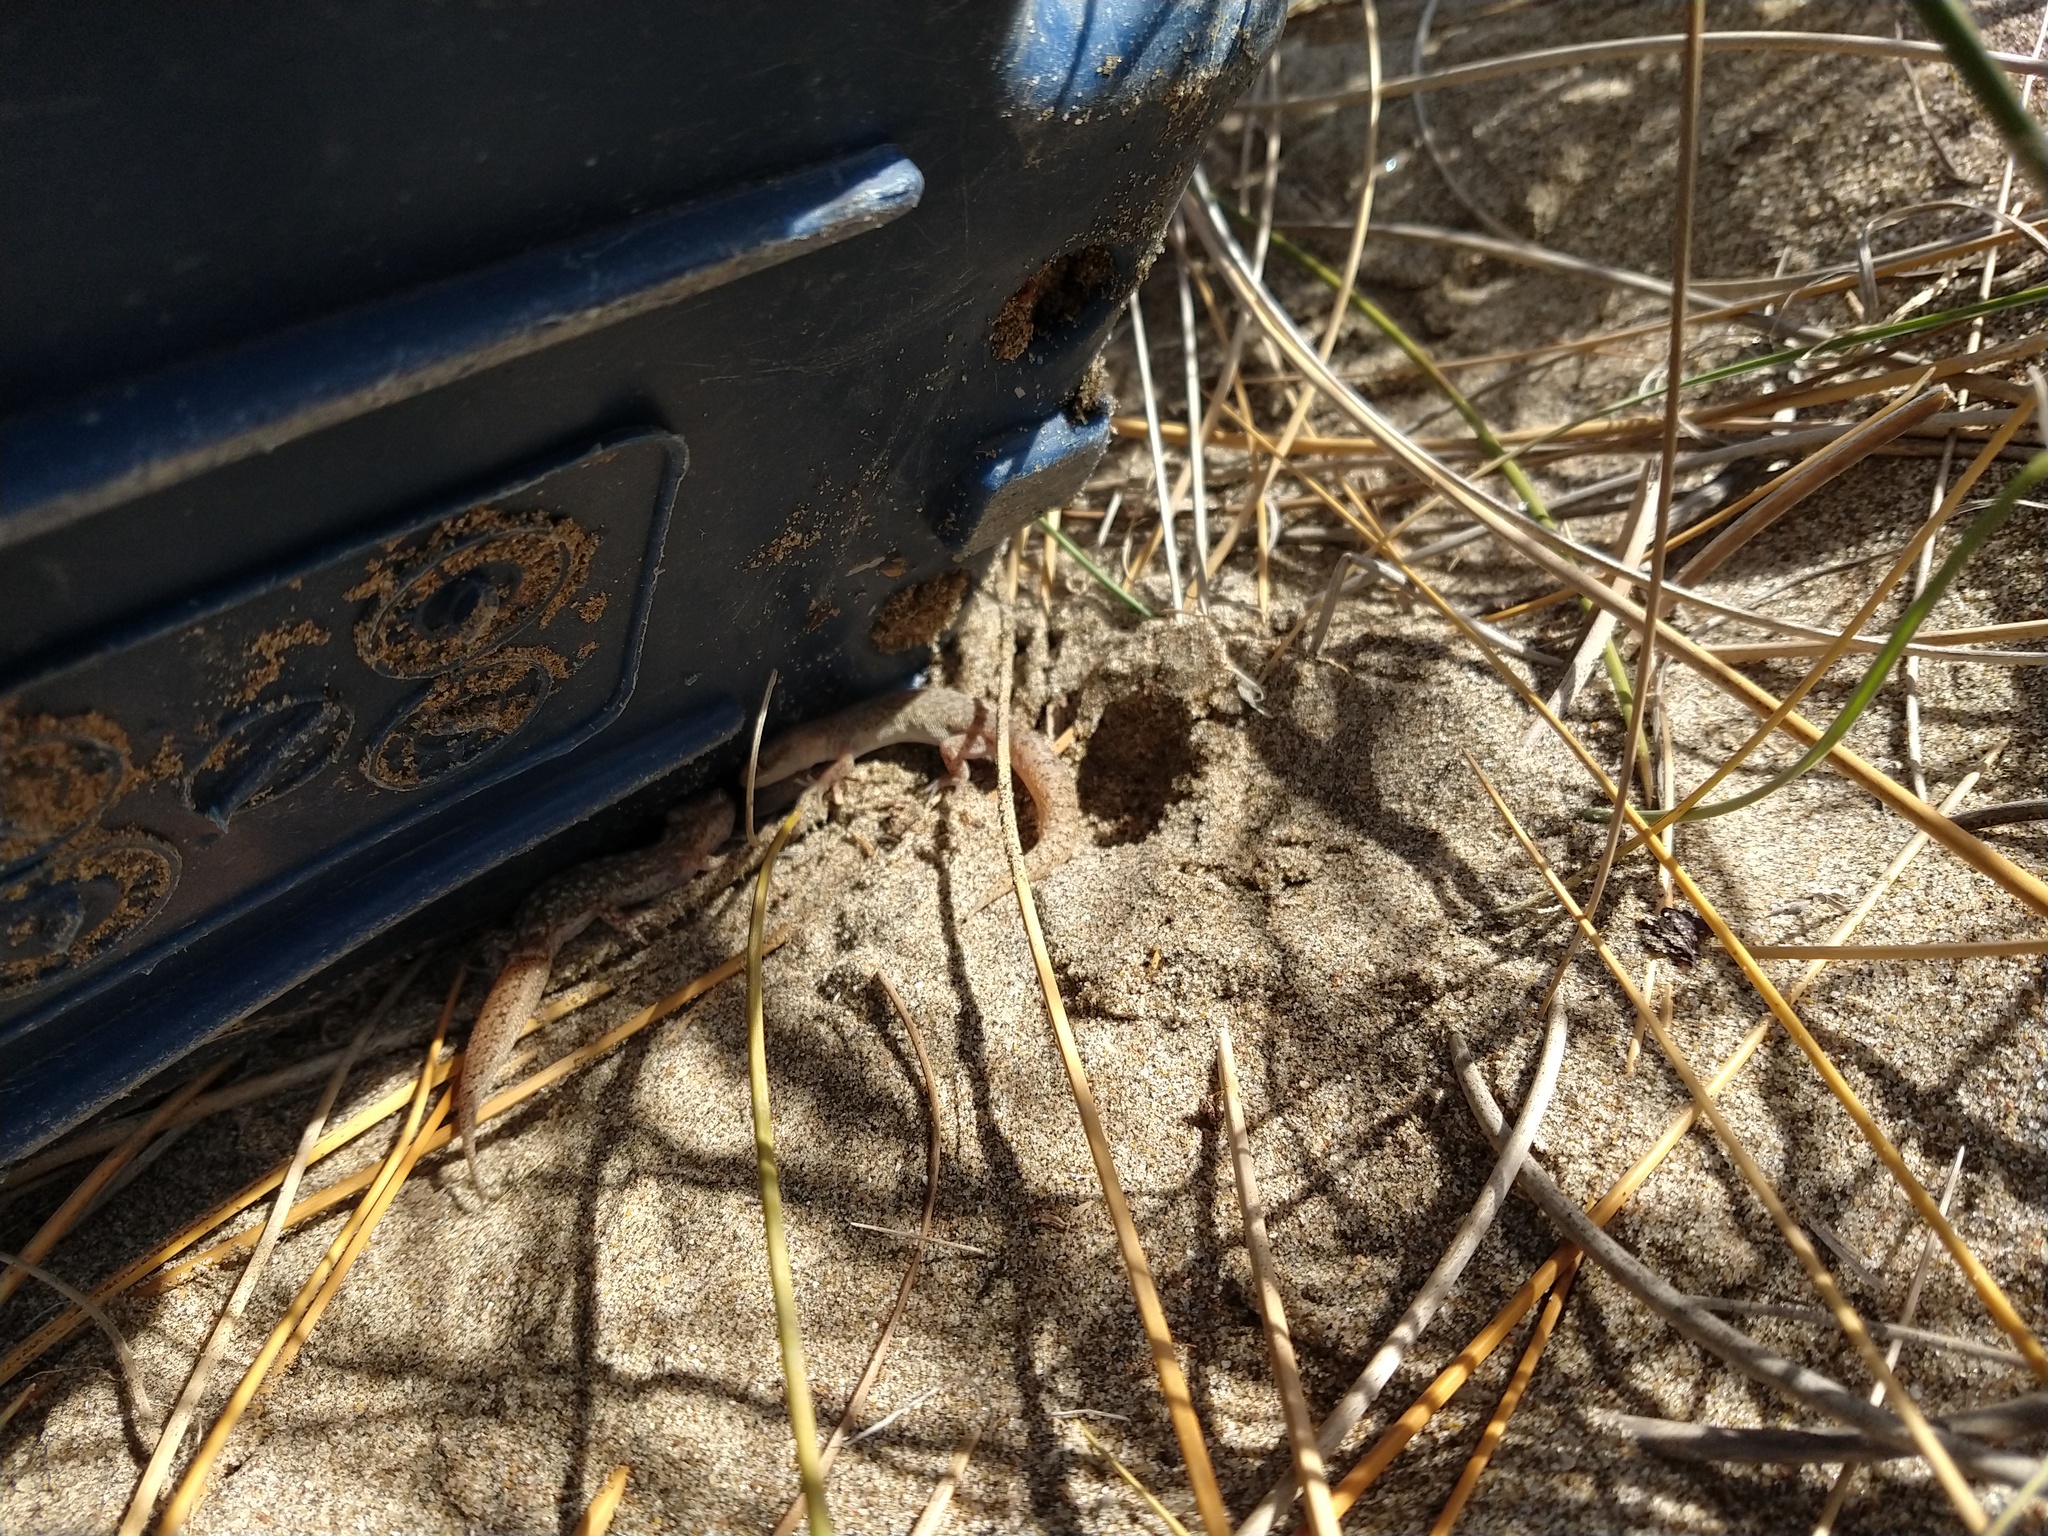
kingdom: Animalia
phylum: Chordata
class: Squamata
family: Phyllodactylidae
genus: Homonota
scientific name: Homonota darwinii
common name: Darwin's marked gecko
